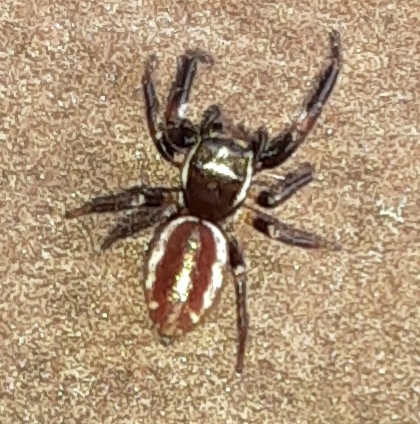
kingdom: Animalia
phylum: Arthropoda
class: Arachnida
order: Araneae
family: Salticidae
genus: Eris
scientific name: Eris militaris
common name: Bronze jumper
